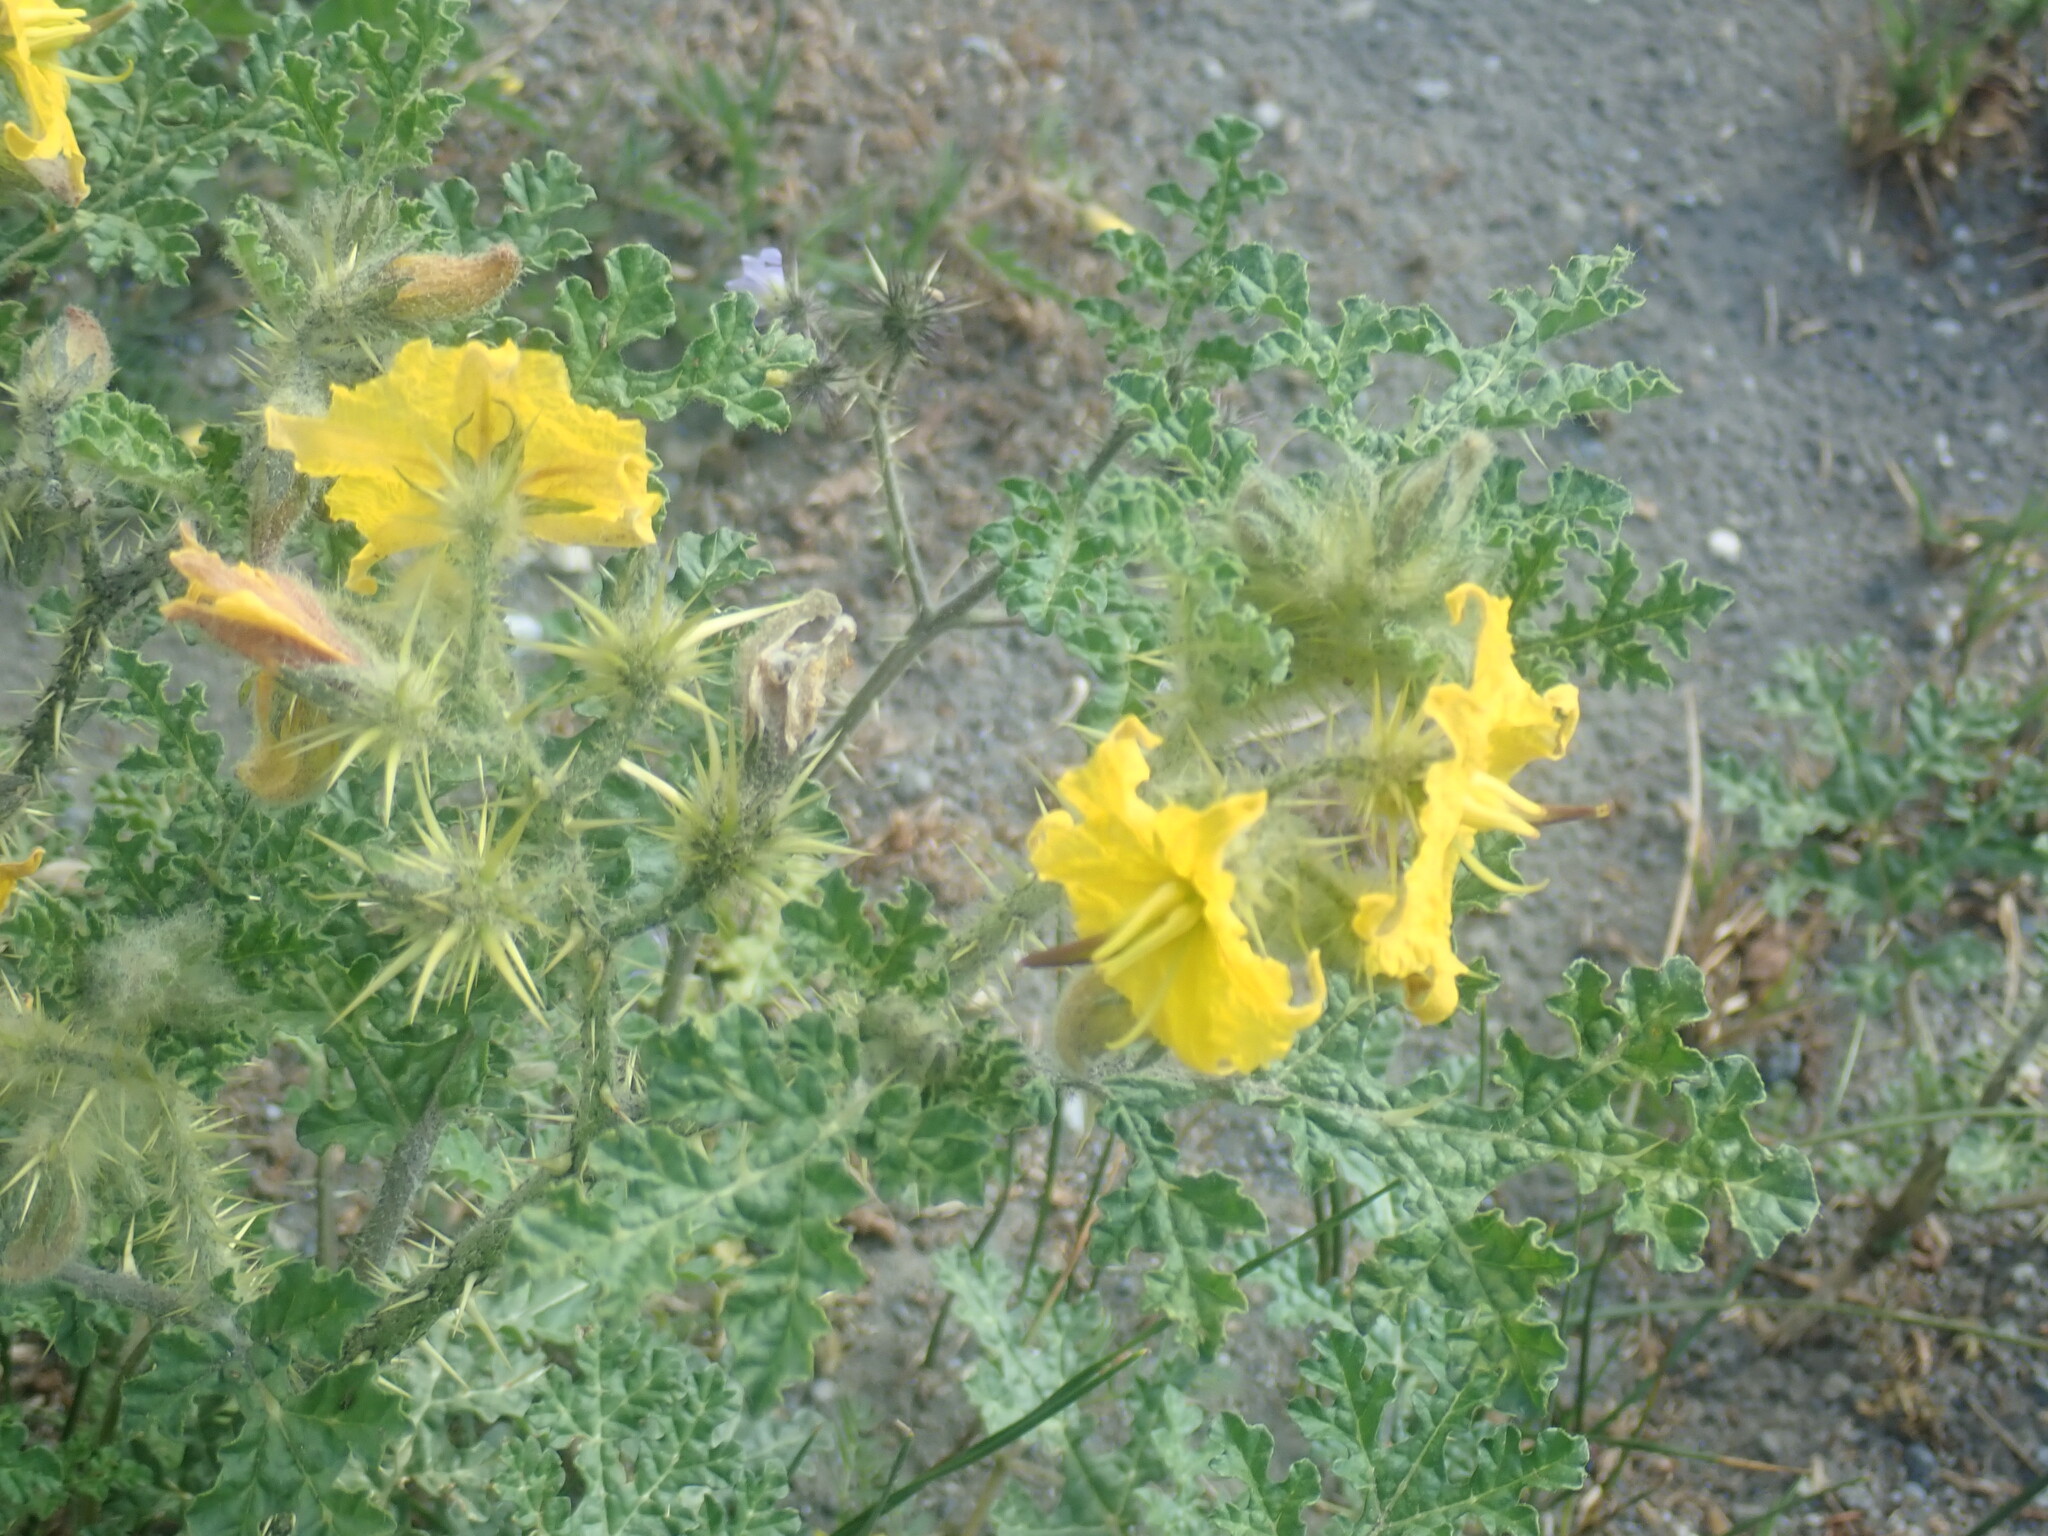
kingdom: Plantae
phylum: Tracheophyta
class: Magnoliopsida
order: Solanales
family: Solanaceae
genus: Solanum
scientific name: Solanum angustifolium
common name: Buffalobur nightshade
